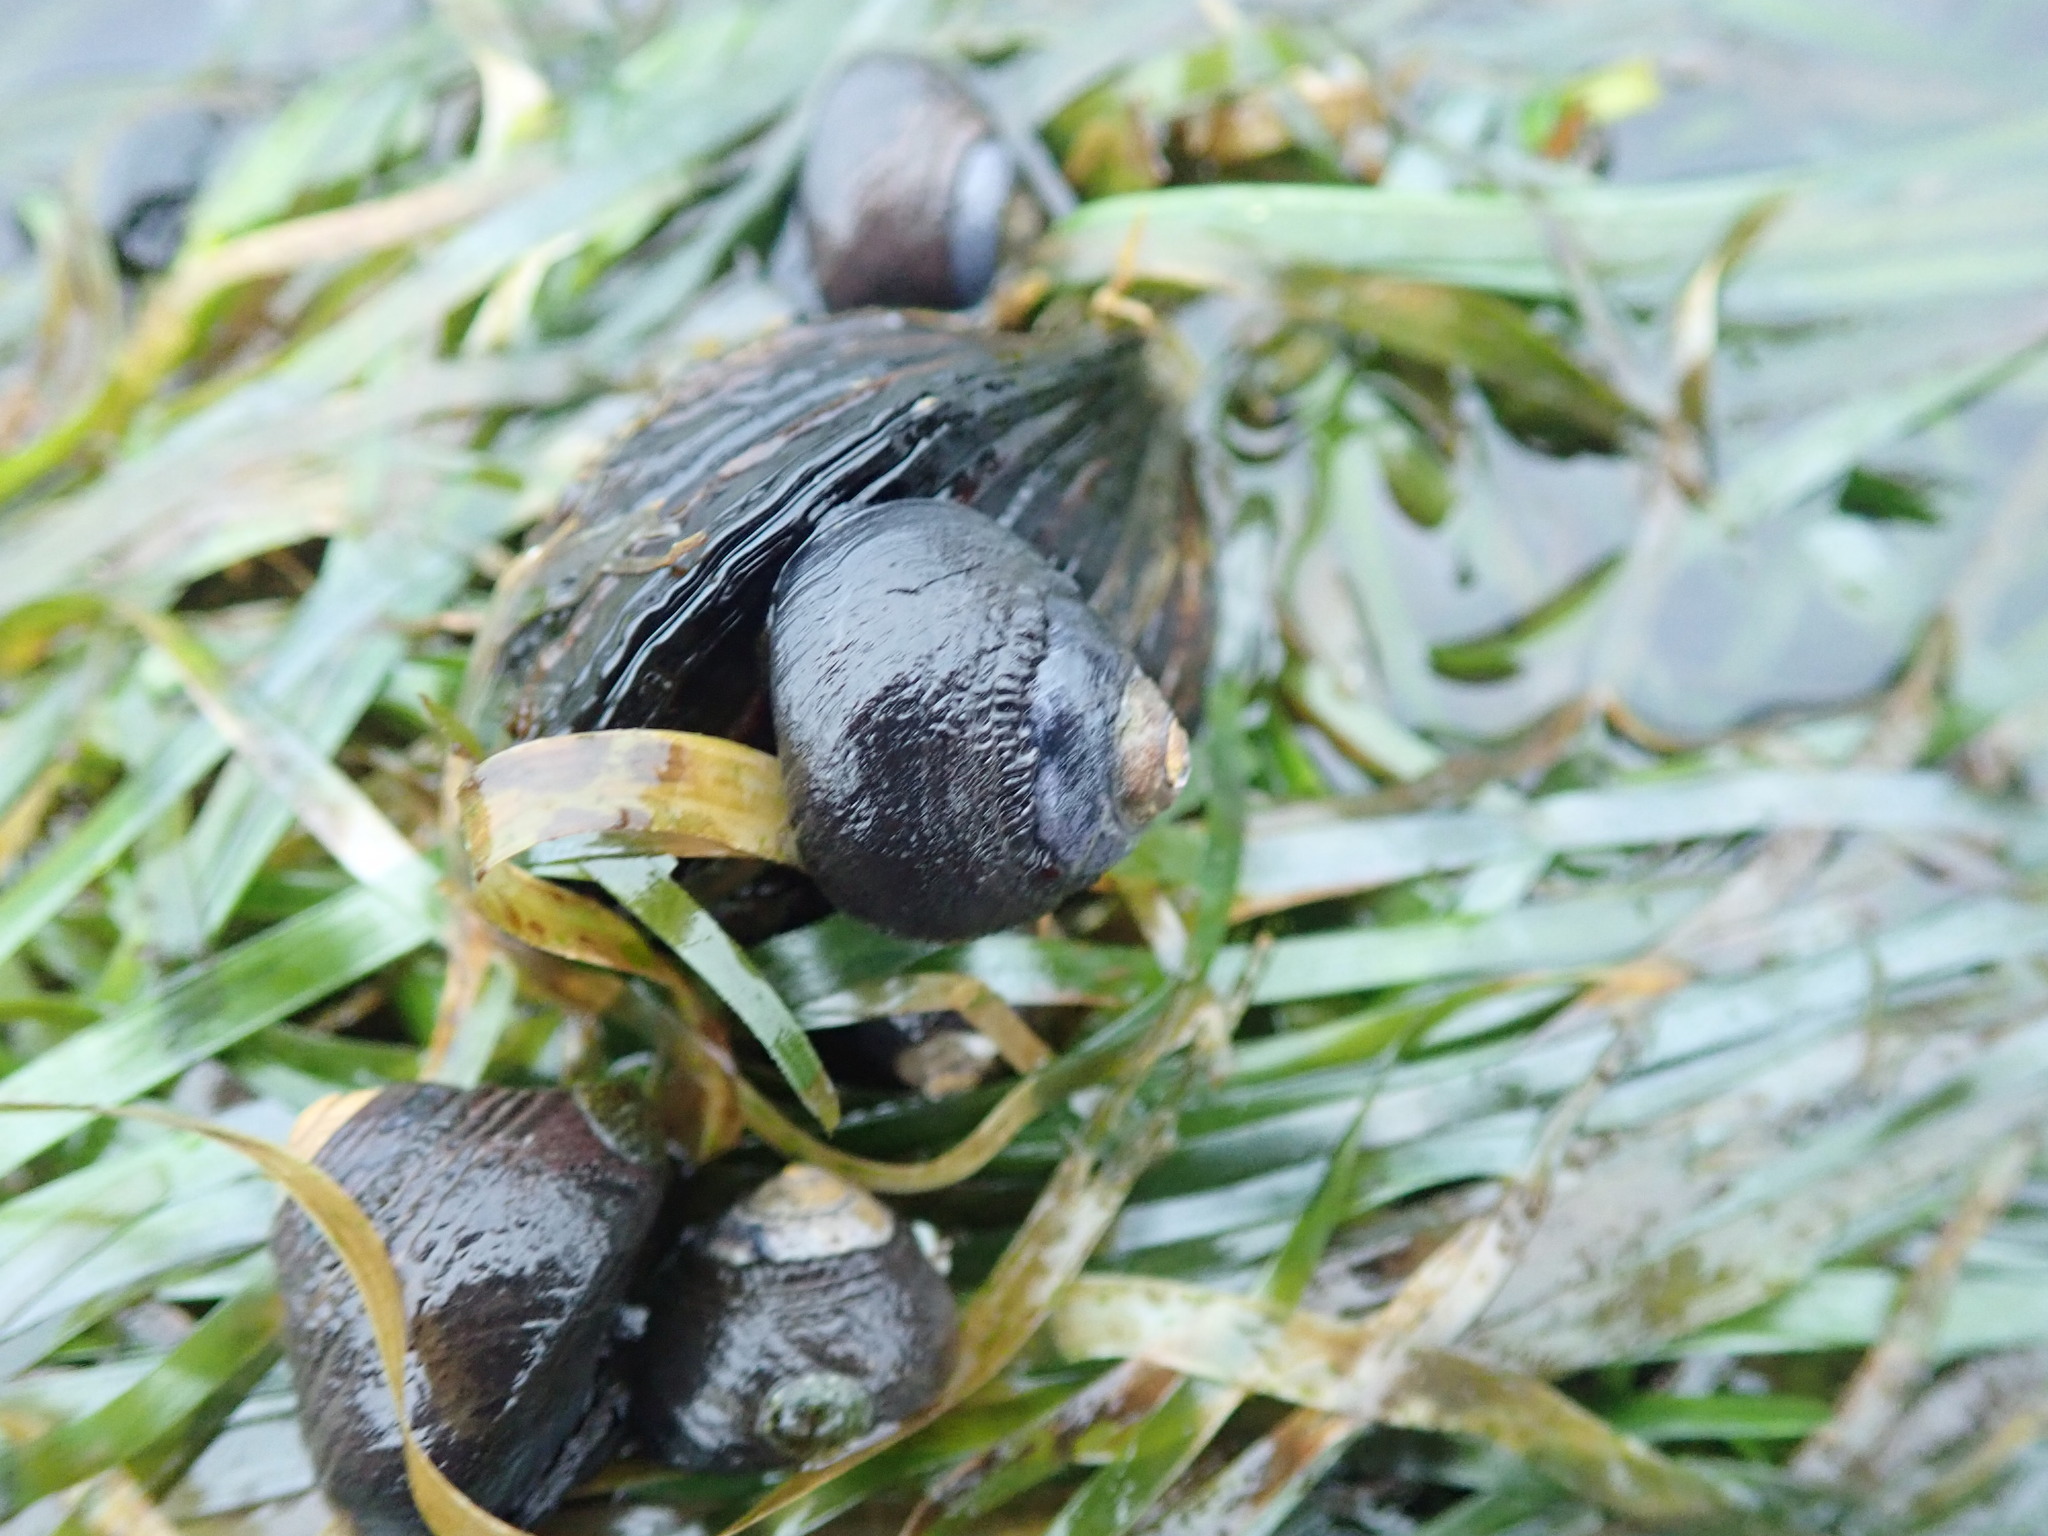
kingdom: Animalia
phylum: Mollusca
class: Gastropoda
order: Trochida
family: Tegulidae
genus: Tegula
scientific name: Tegula funebralis
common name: Black tegula
